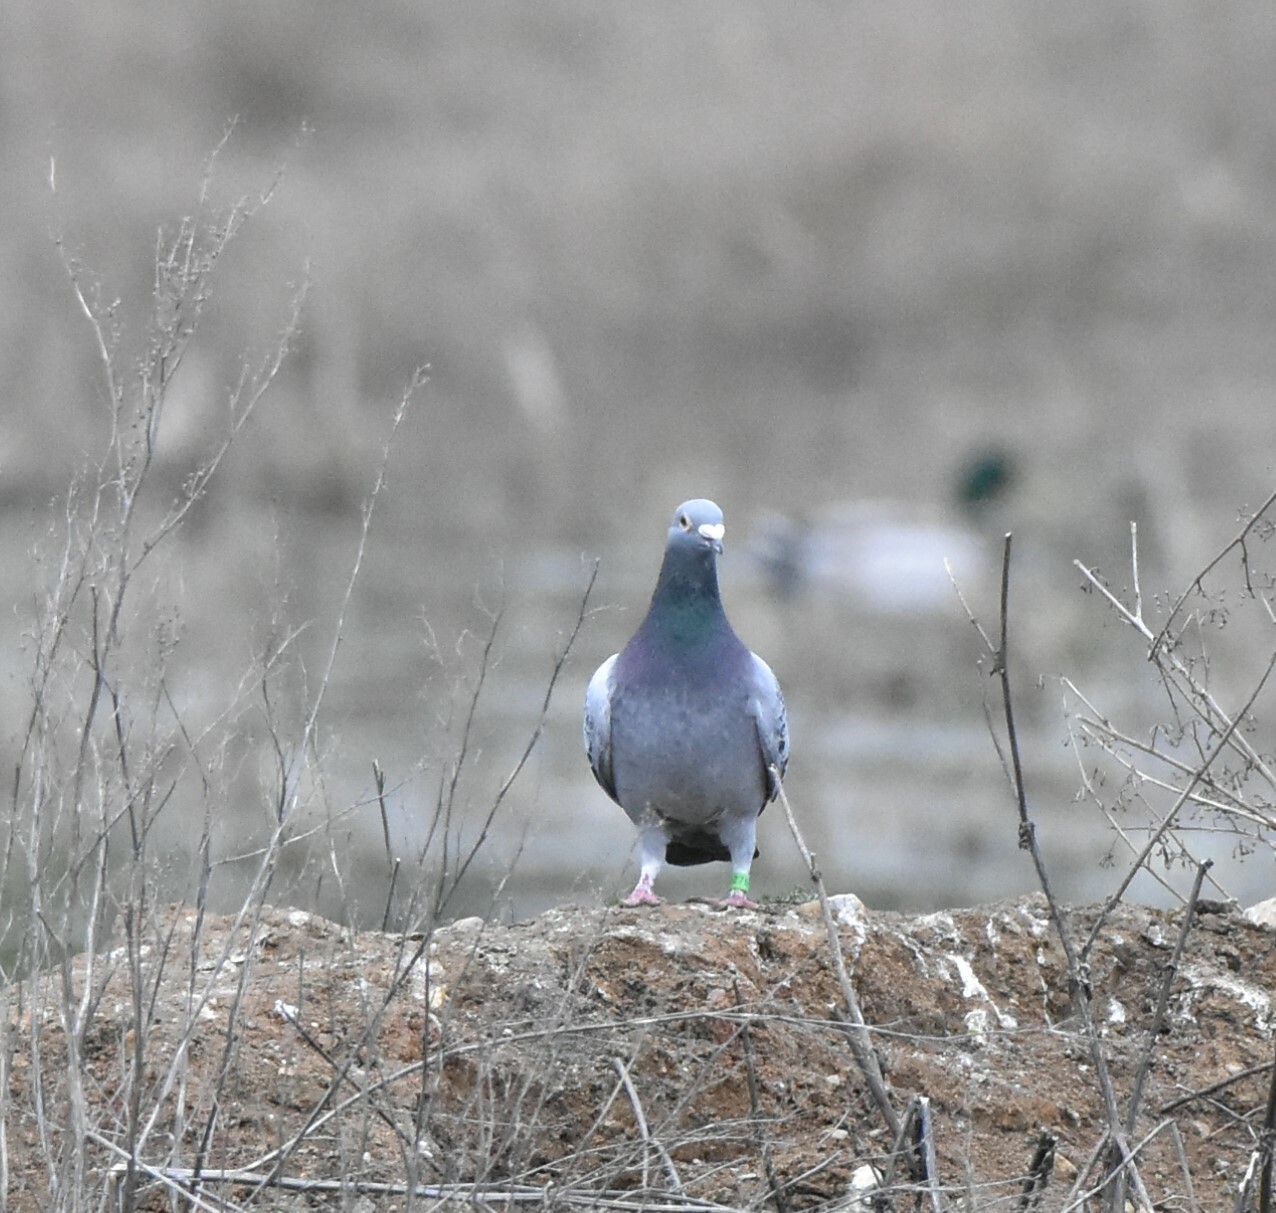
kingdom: Animalia
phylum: Chordata
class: Aves
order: Columbiformes
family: Columbidae
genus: Columba
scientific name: Columba livia
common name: Rock pigeon
